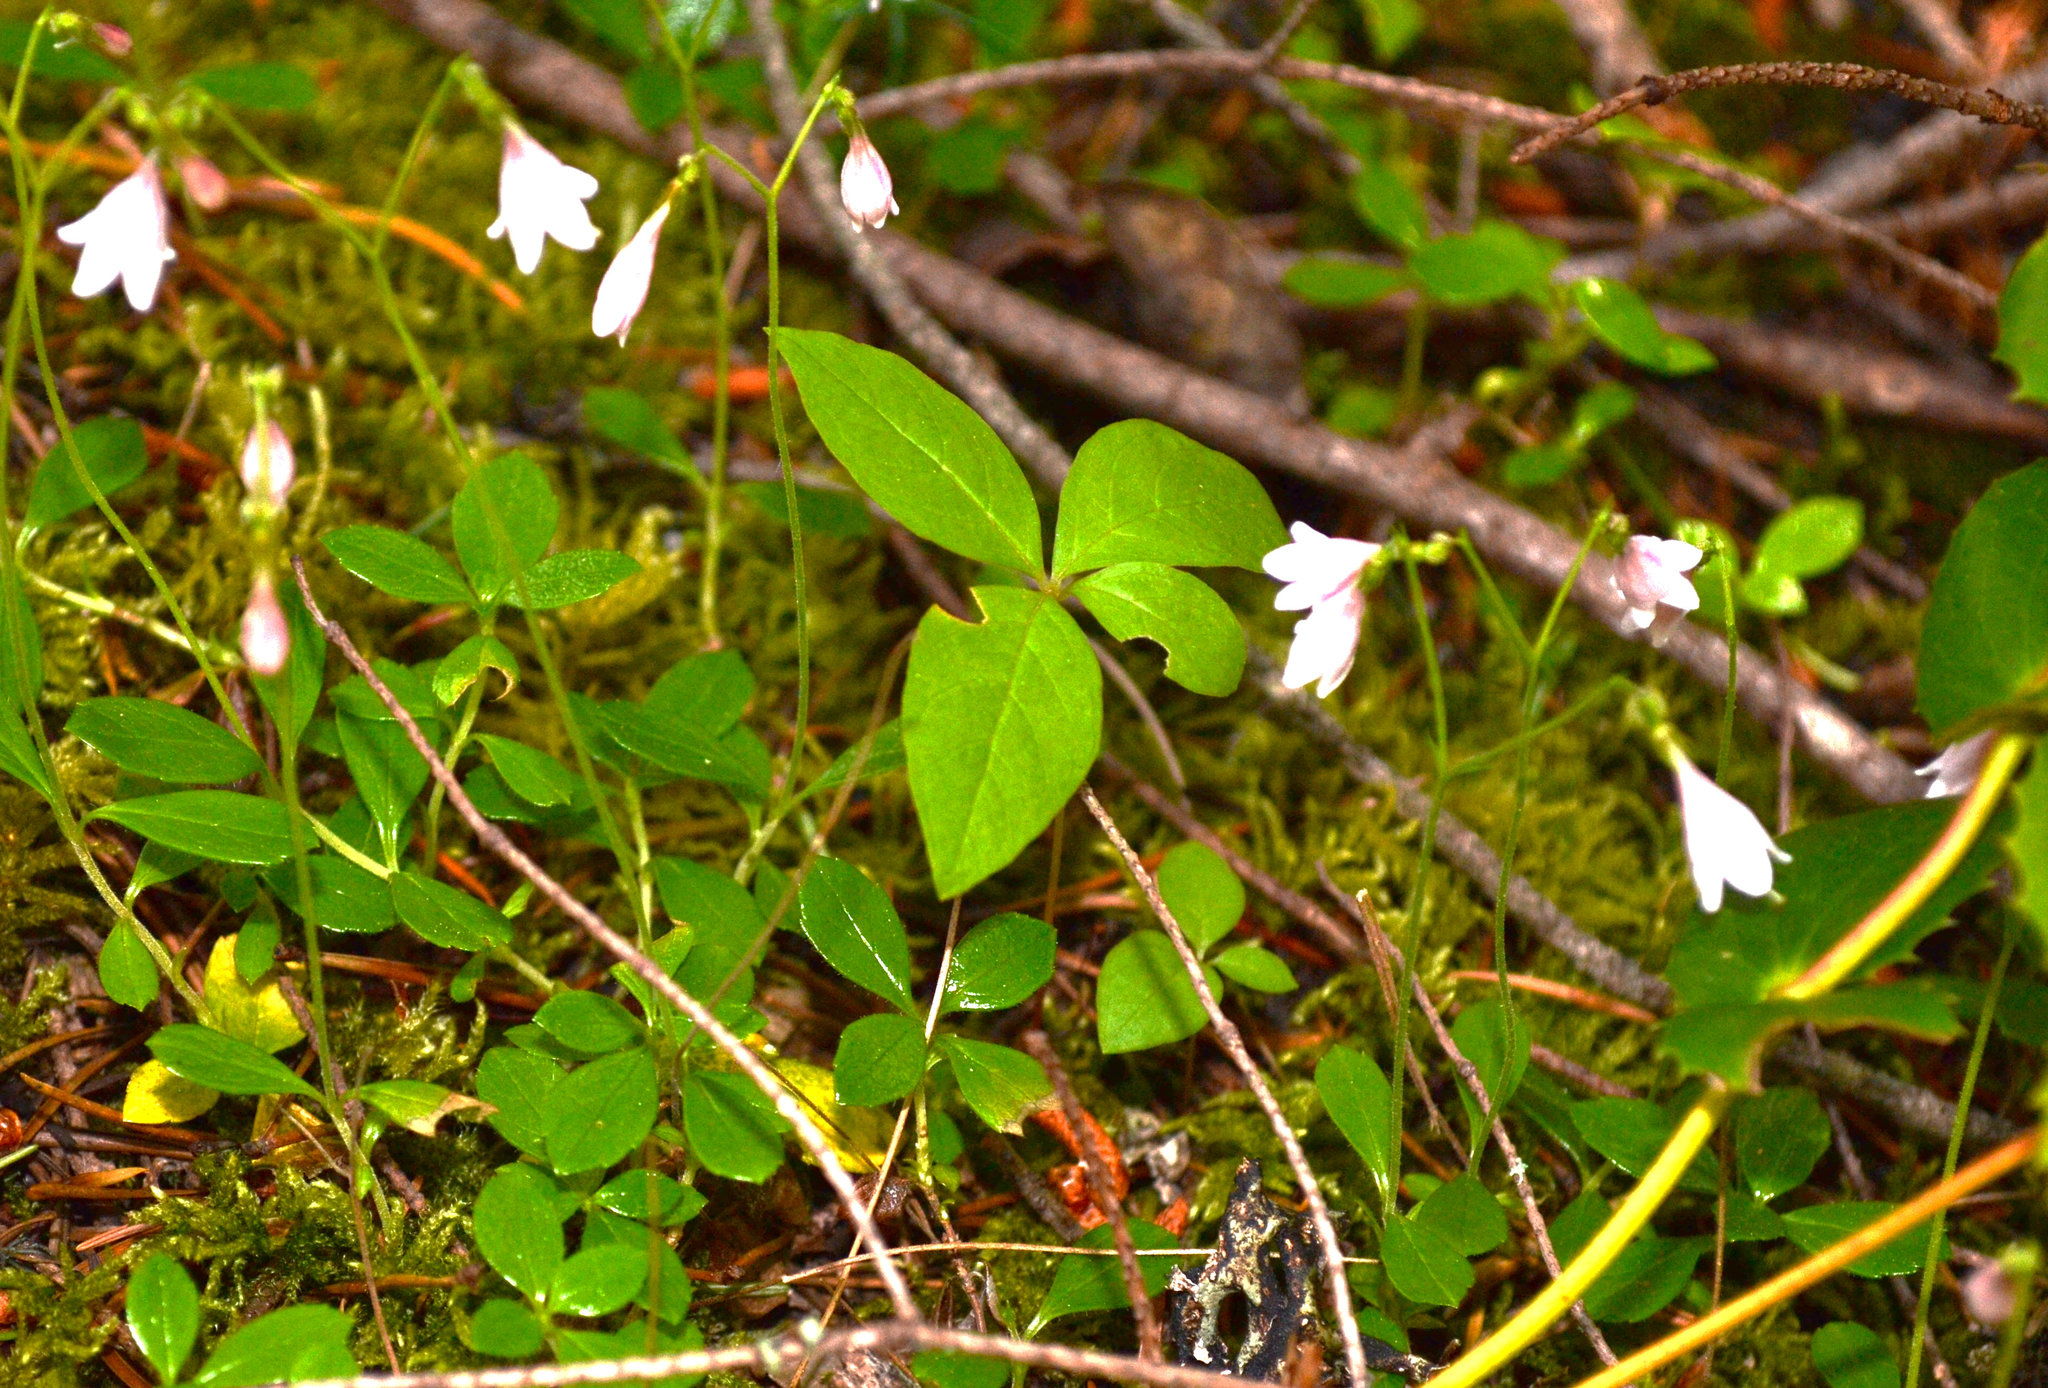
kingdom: Plantae
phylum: Tracheophyta
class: Magnoliopsida
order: Dipsacales
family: Caprifoliaceae
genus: Linnaea
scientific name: Linnaea borealis
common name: Twinflower
